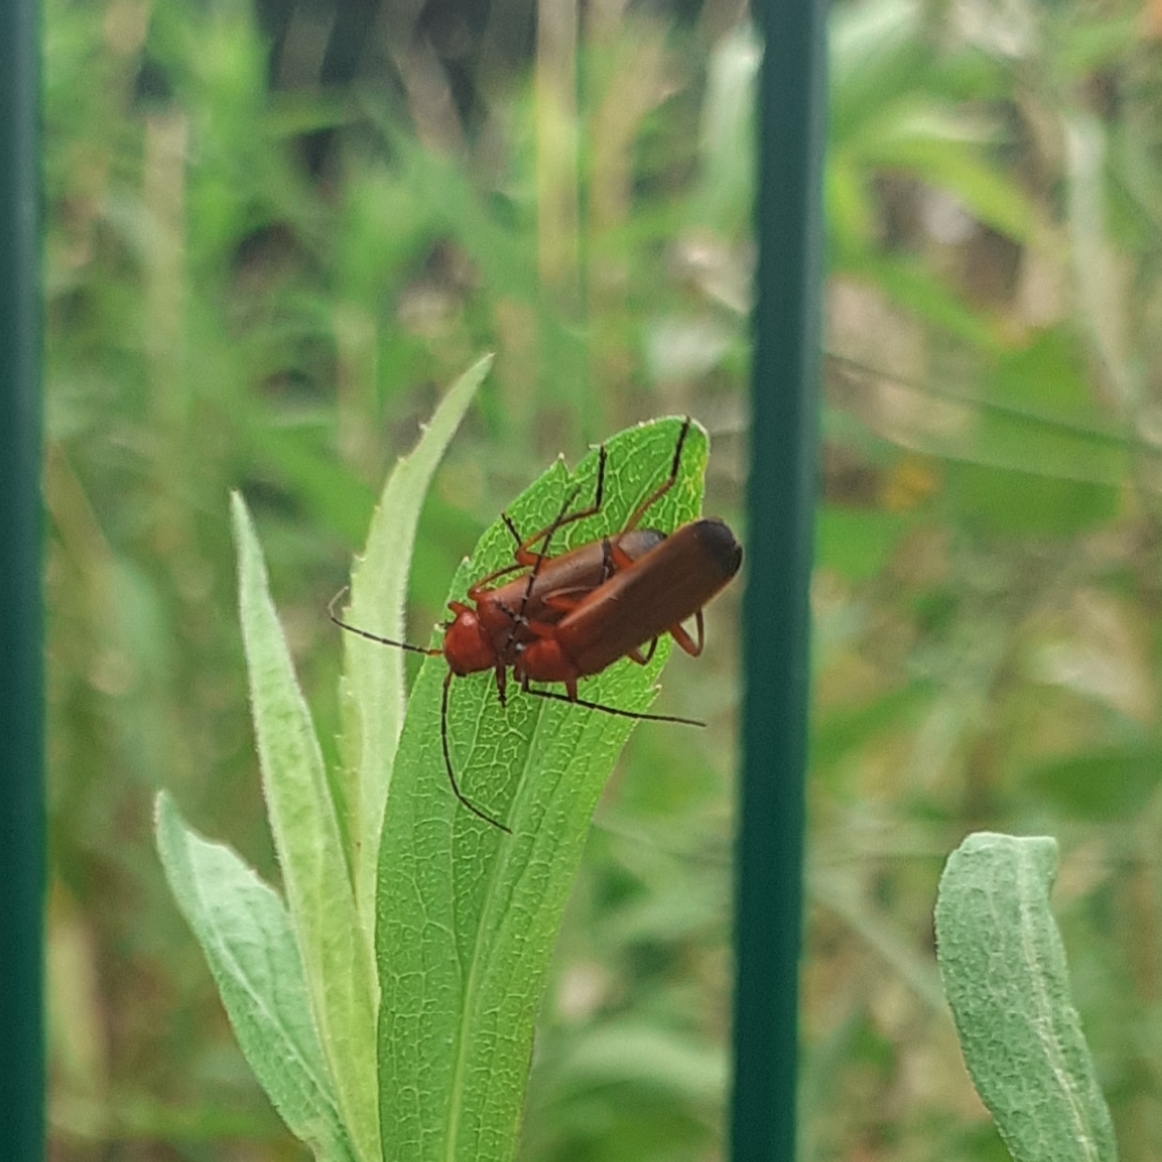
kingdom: Animalia
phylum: Arthropoda
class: Insecta
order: Coleoptera
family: Cantharidae
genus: Rhagonycha
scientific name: Rhagonycha fulva
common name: Common red soldier beetle
